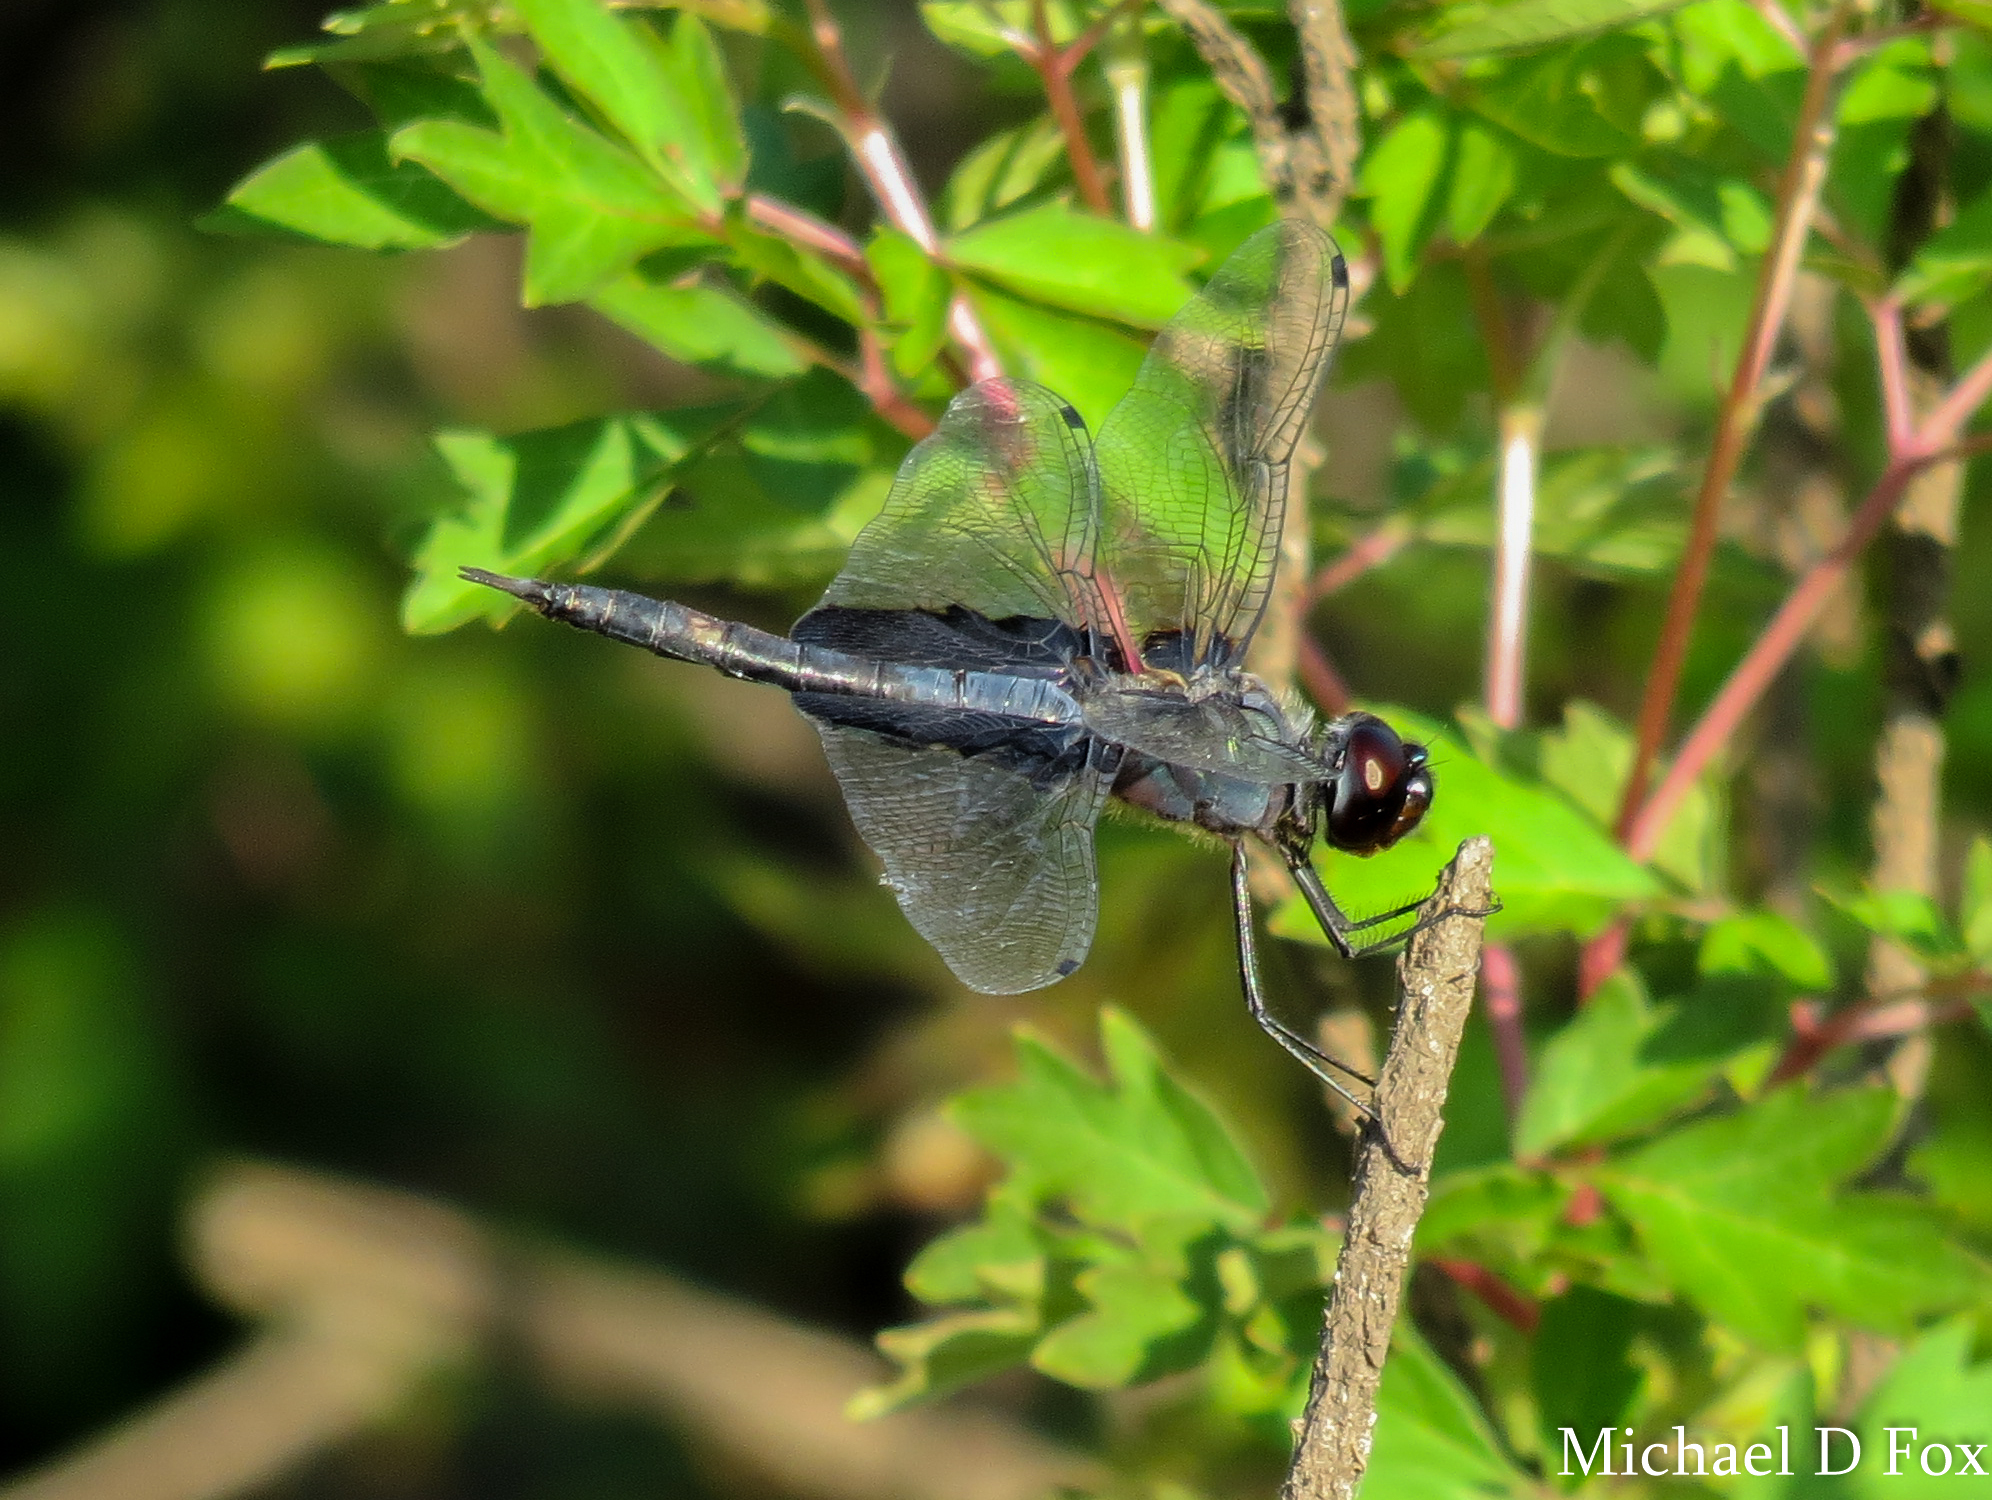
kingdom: Animalia
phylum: Arthropoda
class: Insecta
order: Odonata
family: Libellulidae
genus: Tramea
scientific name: Tramea lacerata
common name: Black saddlebags
